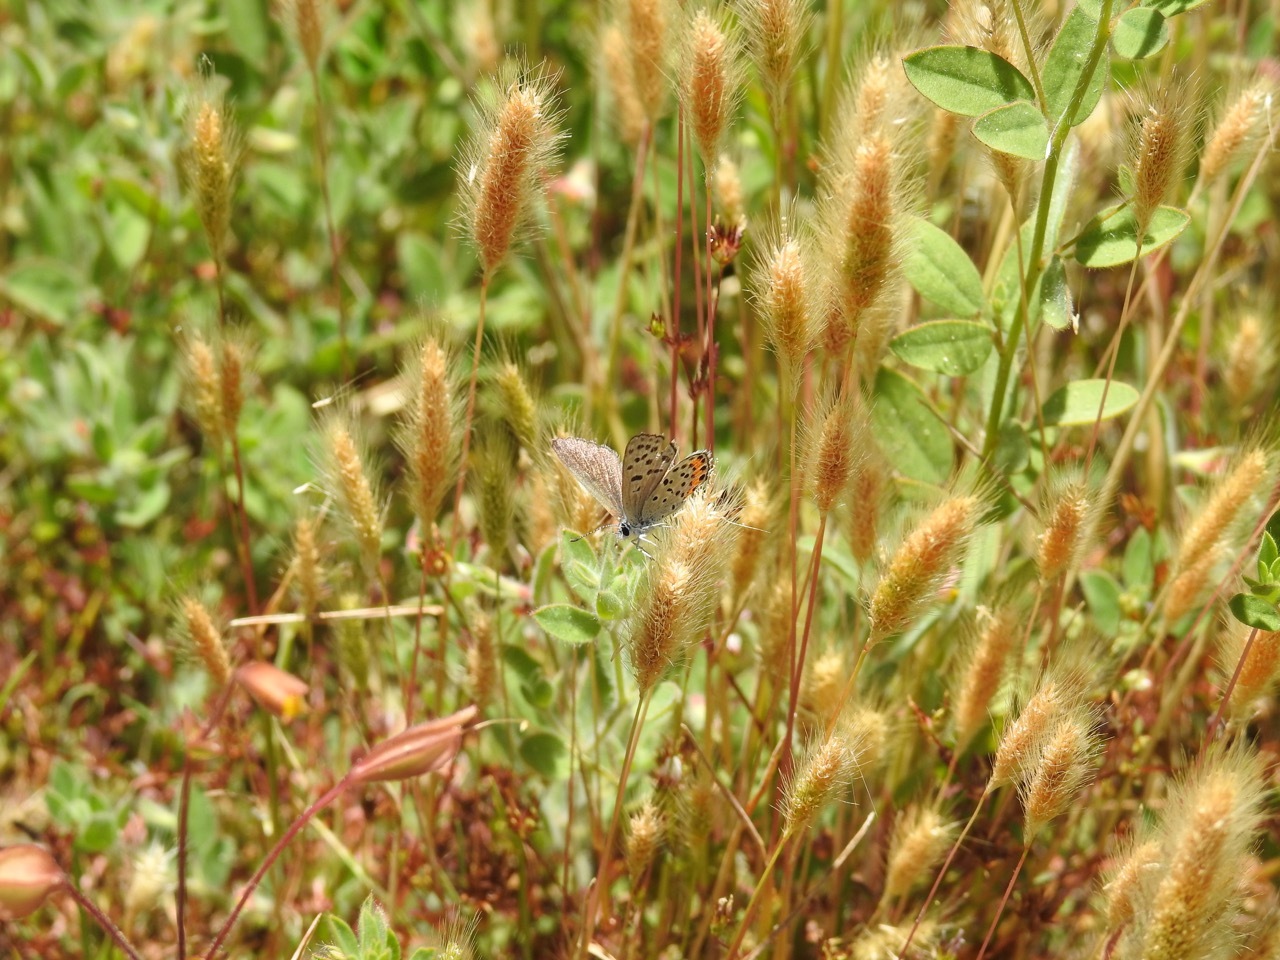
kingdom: Animalia
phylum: Arthropoda
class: Insecta
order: Lepidoptera
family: Lycaenidae
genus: Icaricia
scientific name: Icaricia acmon
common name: Acmon blue
